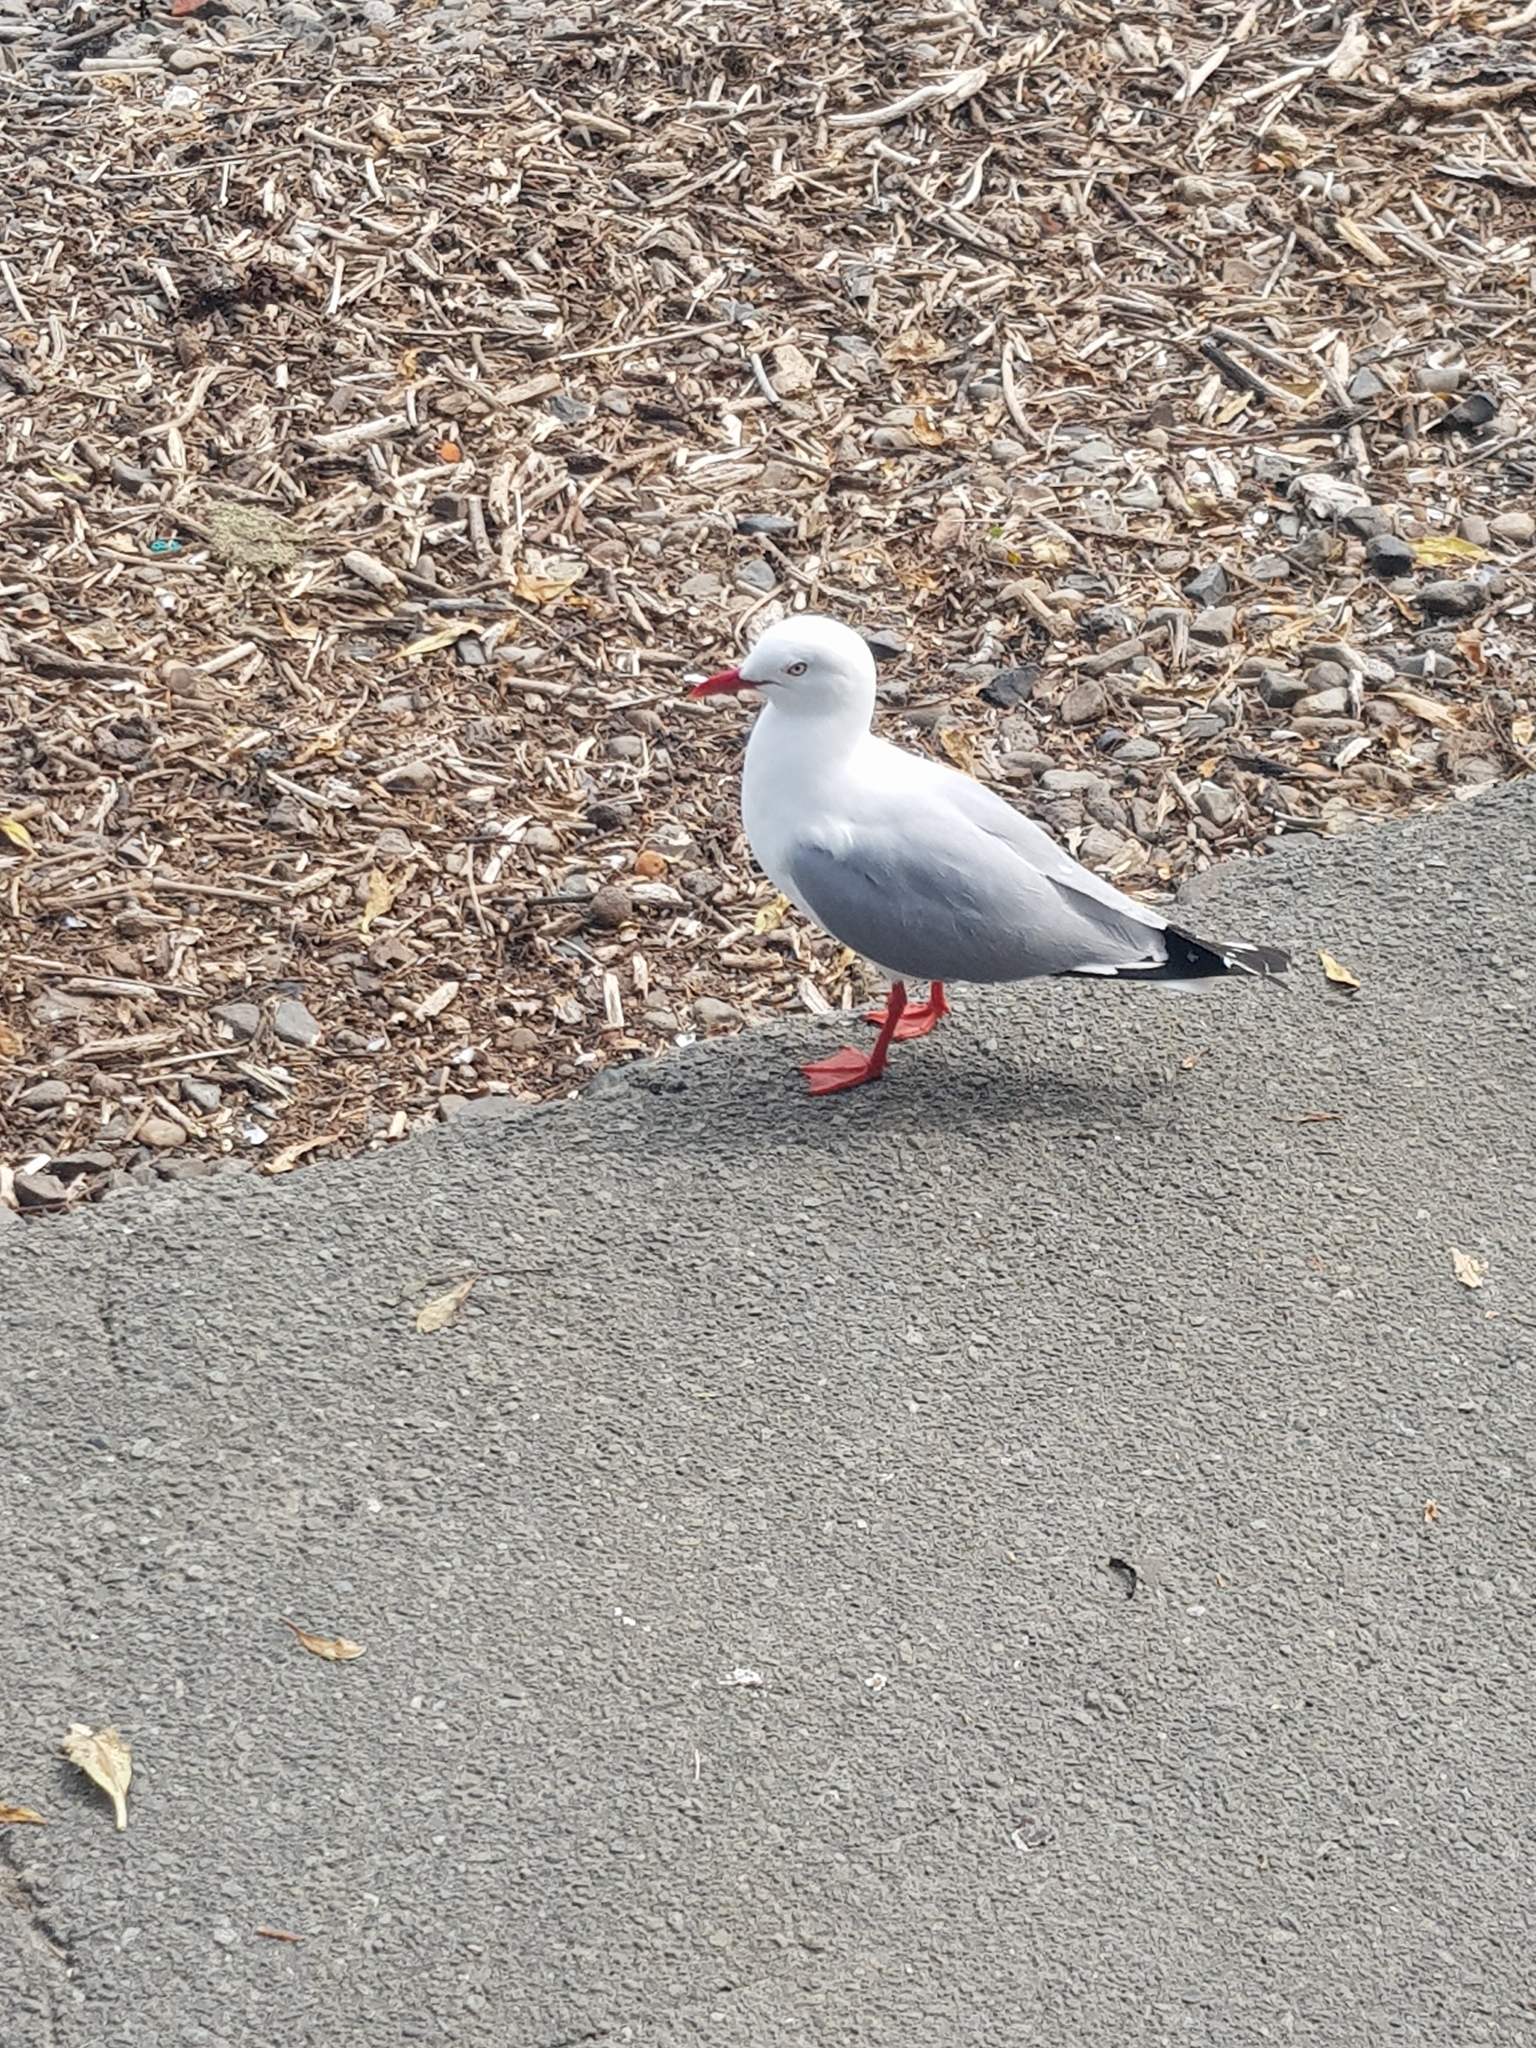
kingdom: Animalia
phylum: Chordata
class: Aves
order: Charadriiformes
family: Laridae
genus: Chroicocephalus
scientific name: Chroicocephalus novaehollandiae
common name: Silver gull
